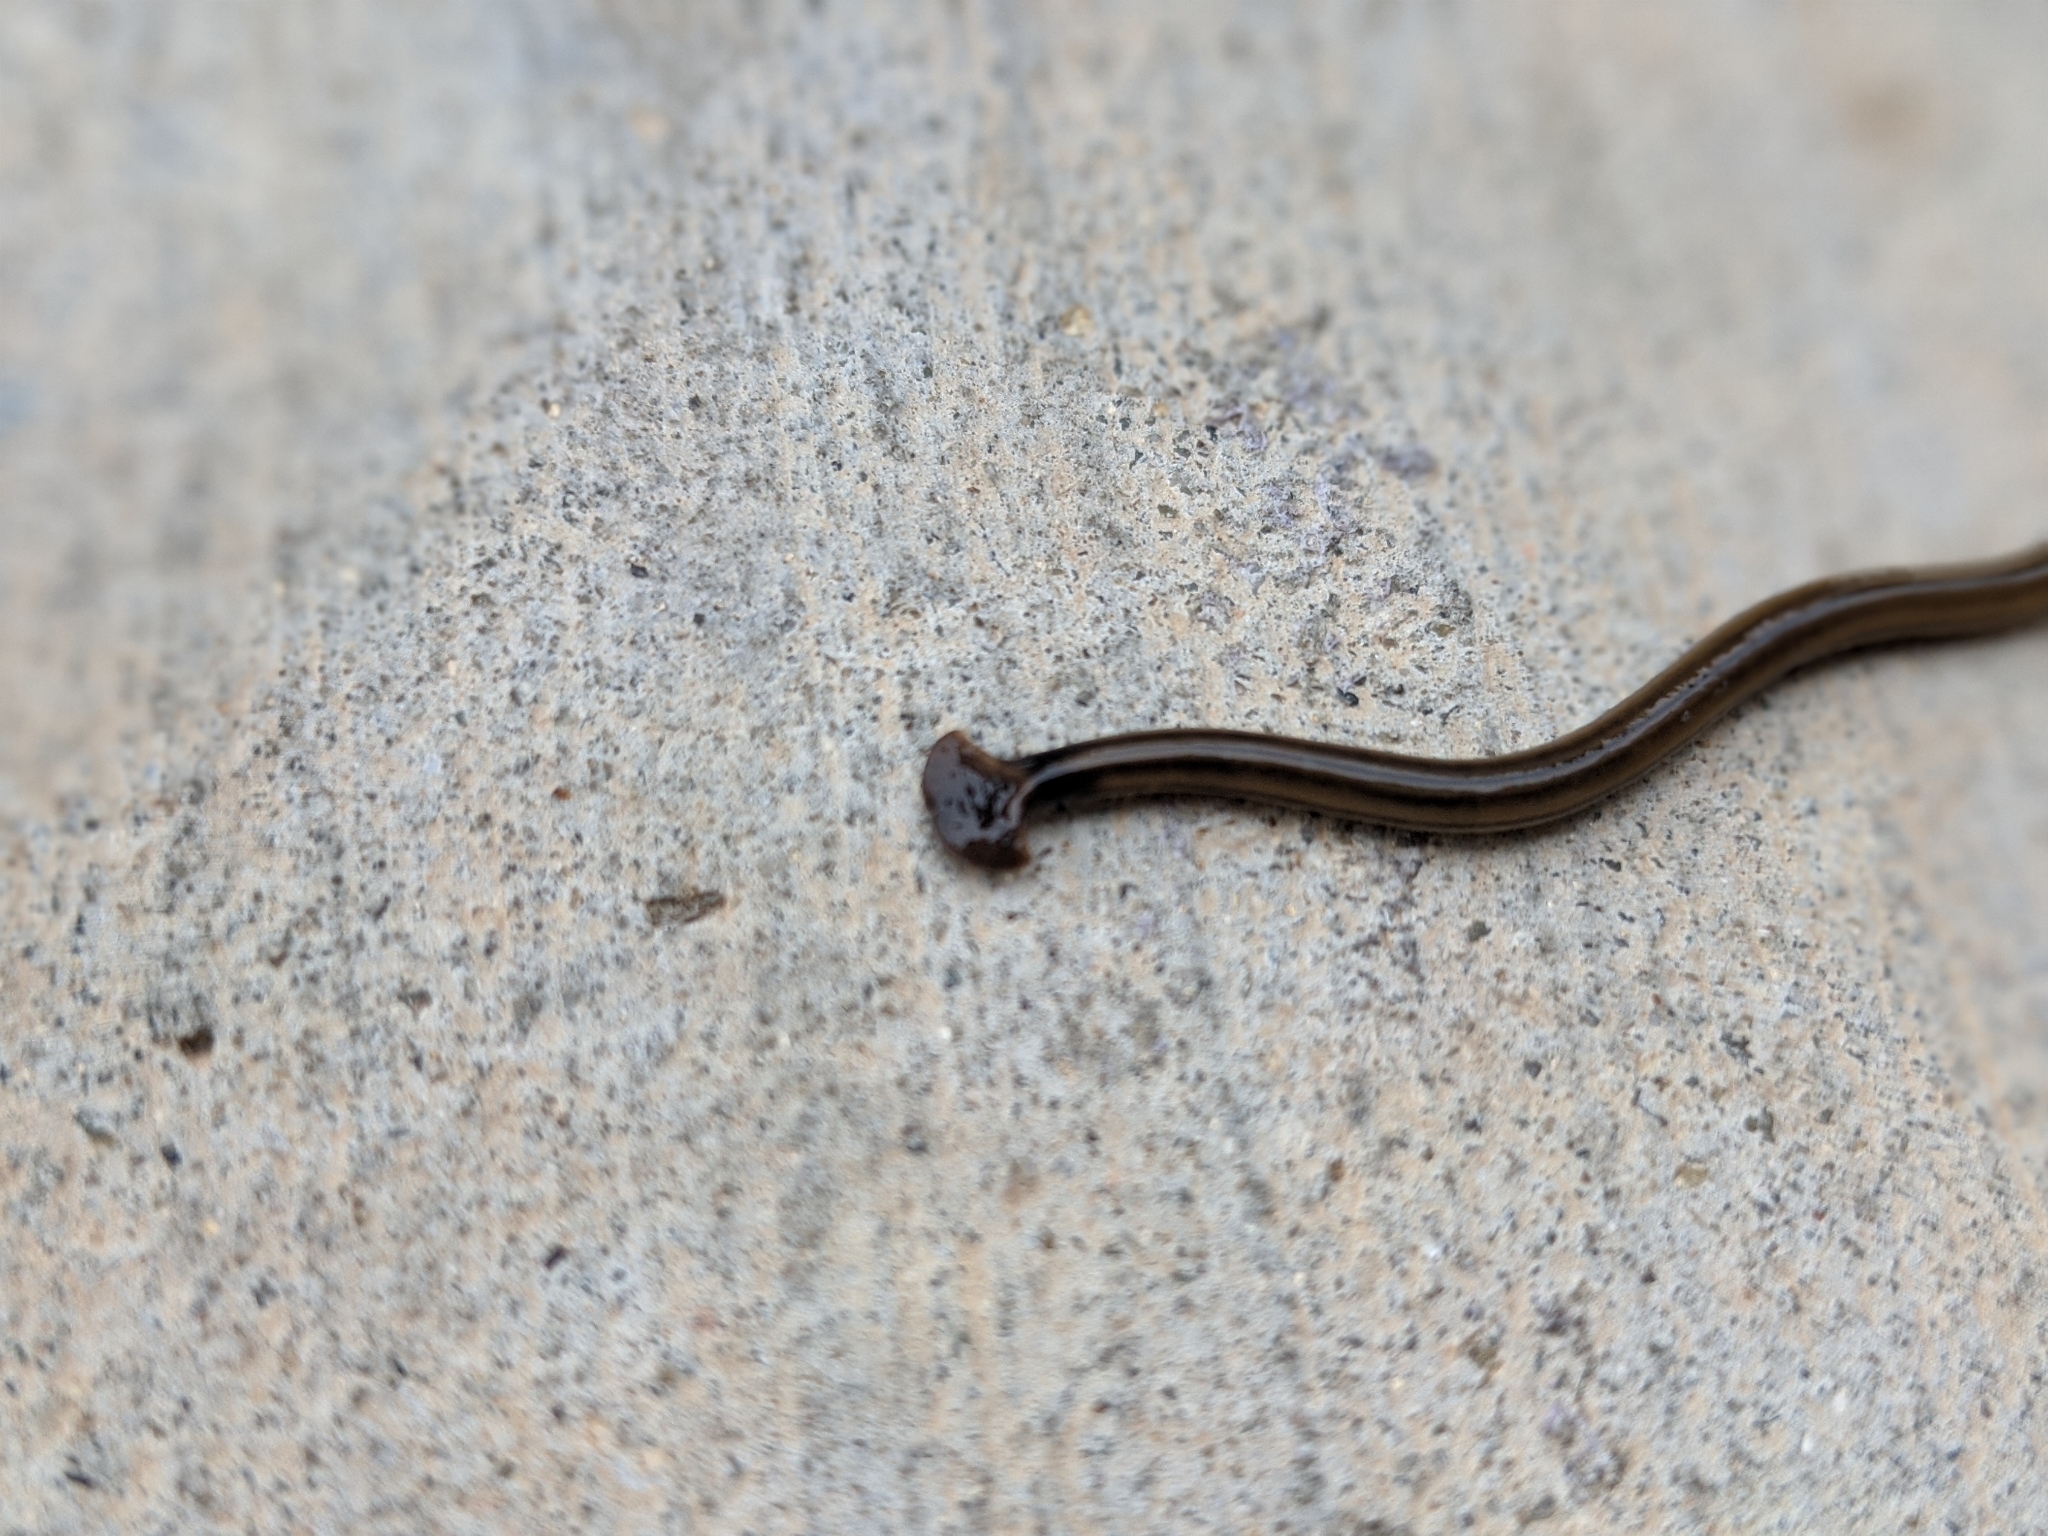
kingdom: Animalia
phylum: Platyhelminthes
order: Tricladida
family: Geoplanidae
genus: Bipalium
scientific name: Bipalium kewense
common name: Hammerhead flatworm
